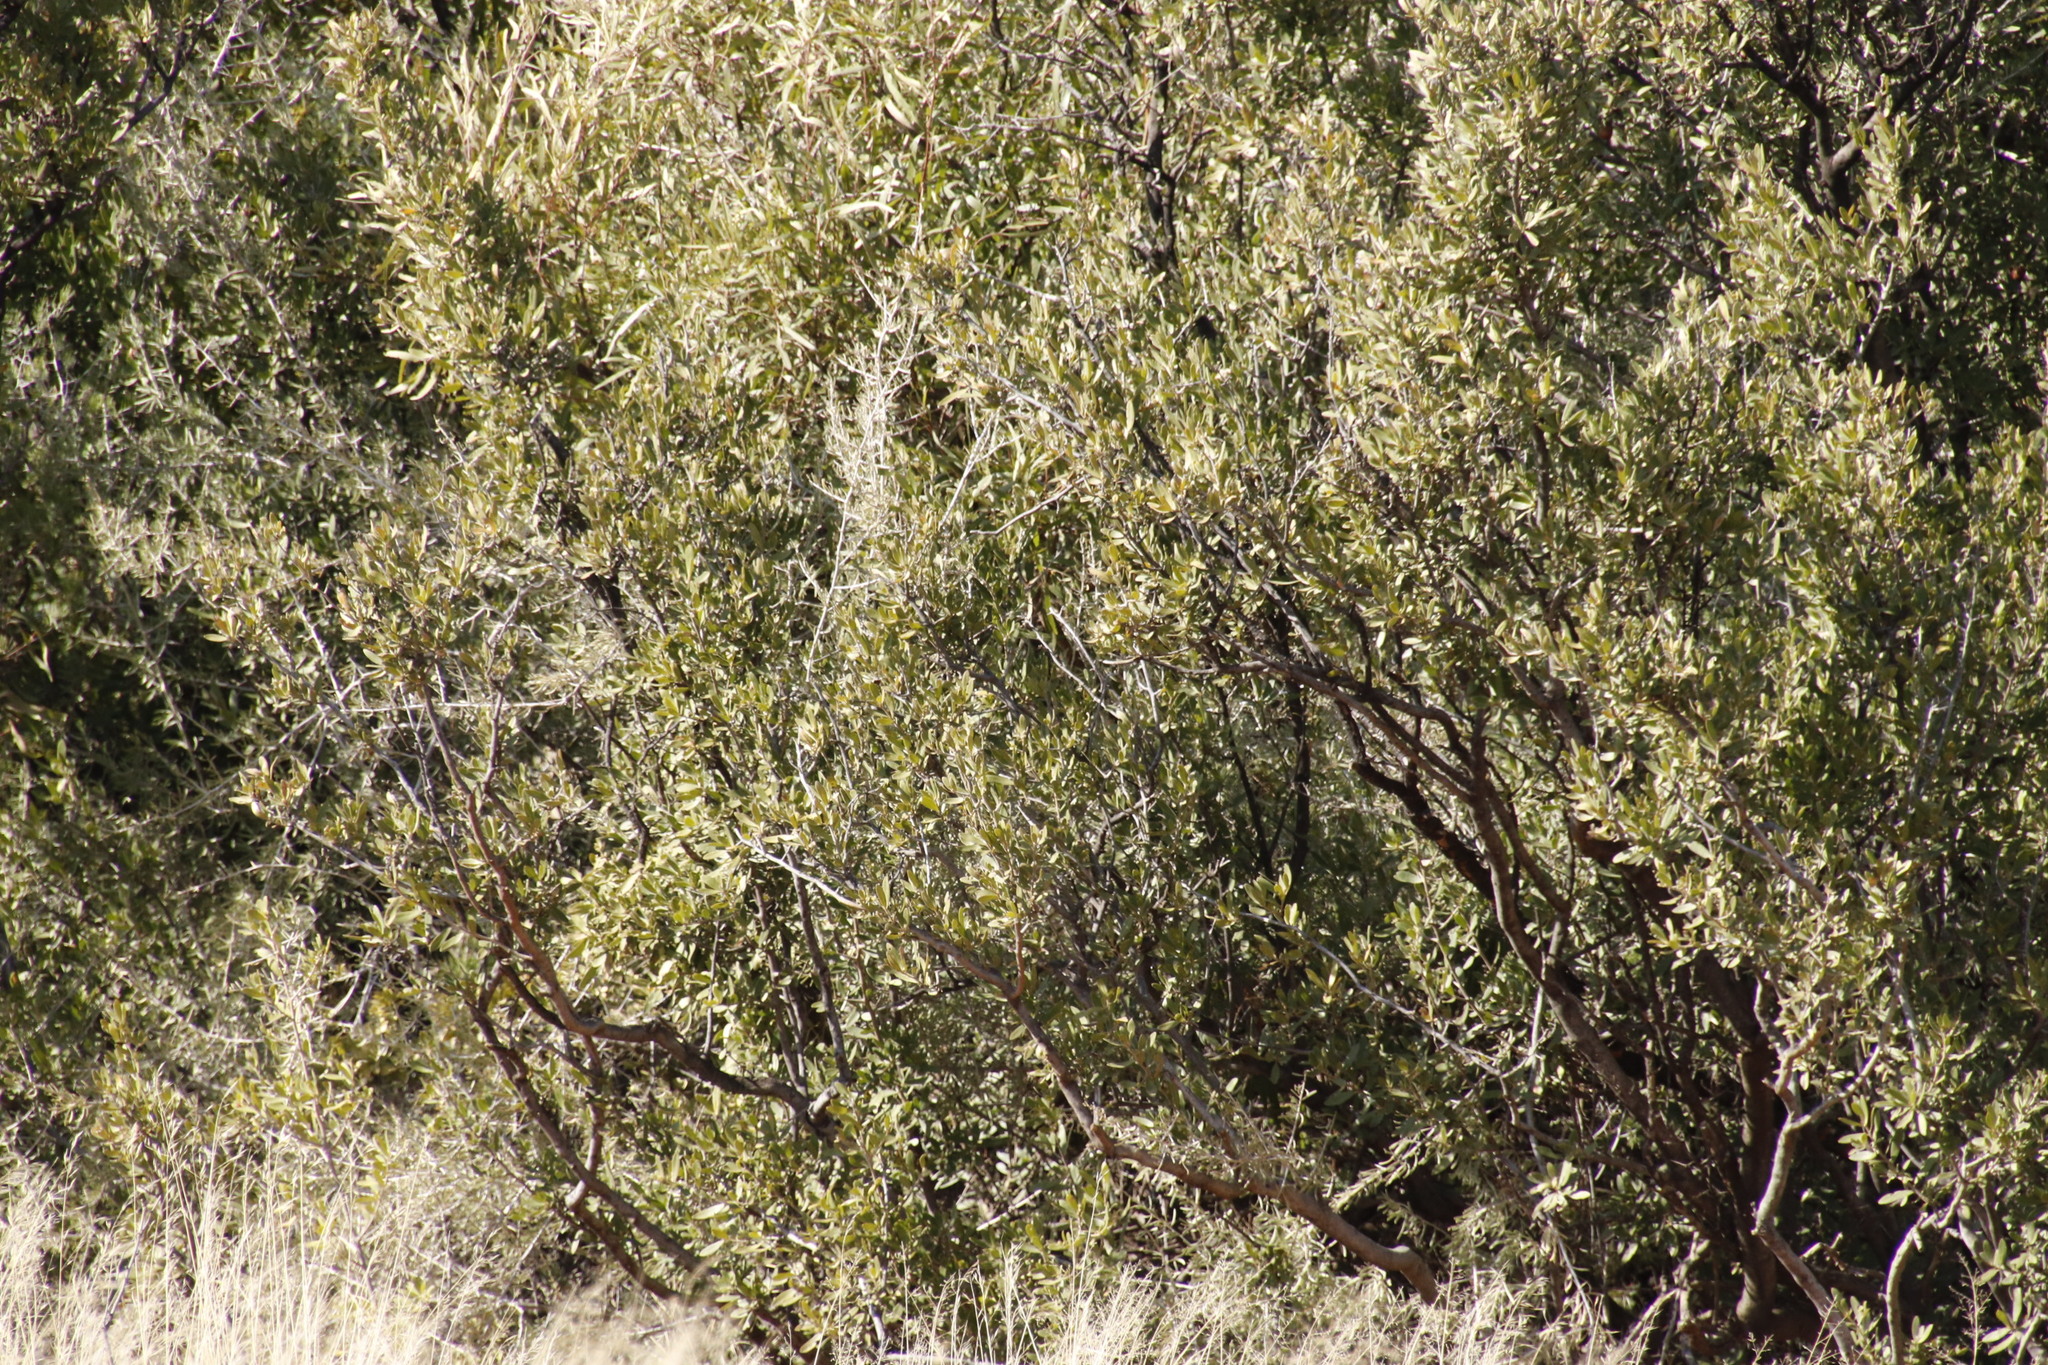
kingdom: Plantae
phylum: Tracheophyta
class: Magnoliopsida
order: Ericales
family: Ebenaceae
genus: Diospyros
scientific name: Diospyros lycioides
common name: Red star apple
